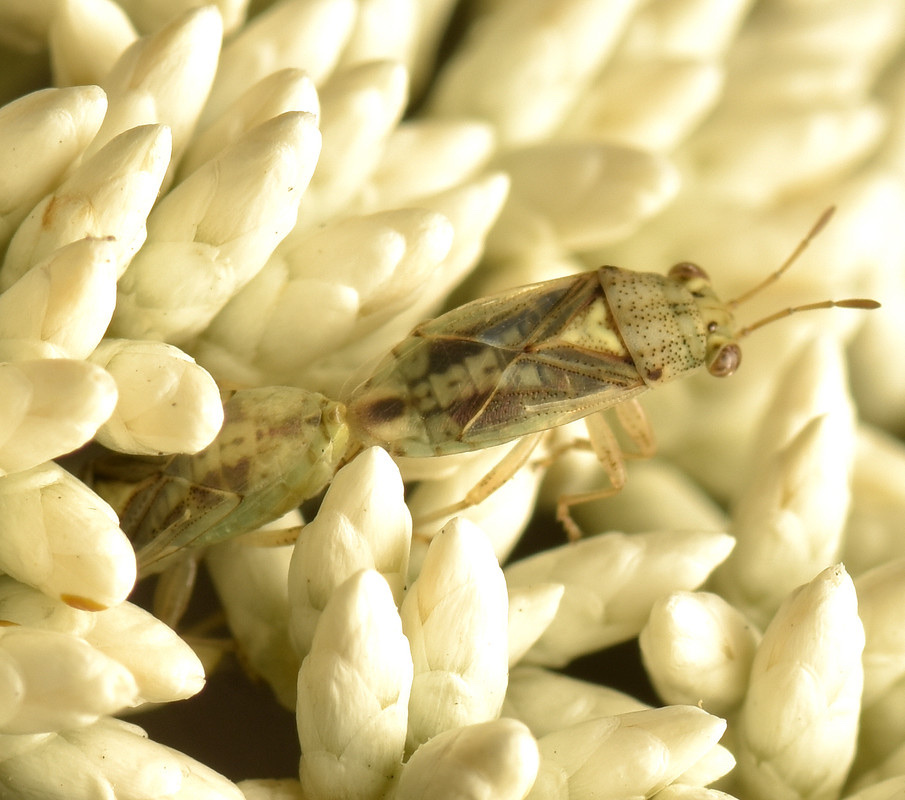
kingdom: Animalia
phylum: Arthropoda
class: Insecta
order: Hemiptera
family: Geocoridae
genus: Germalus
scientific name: Germalus victoriae
